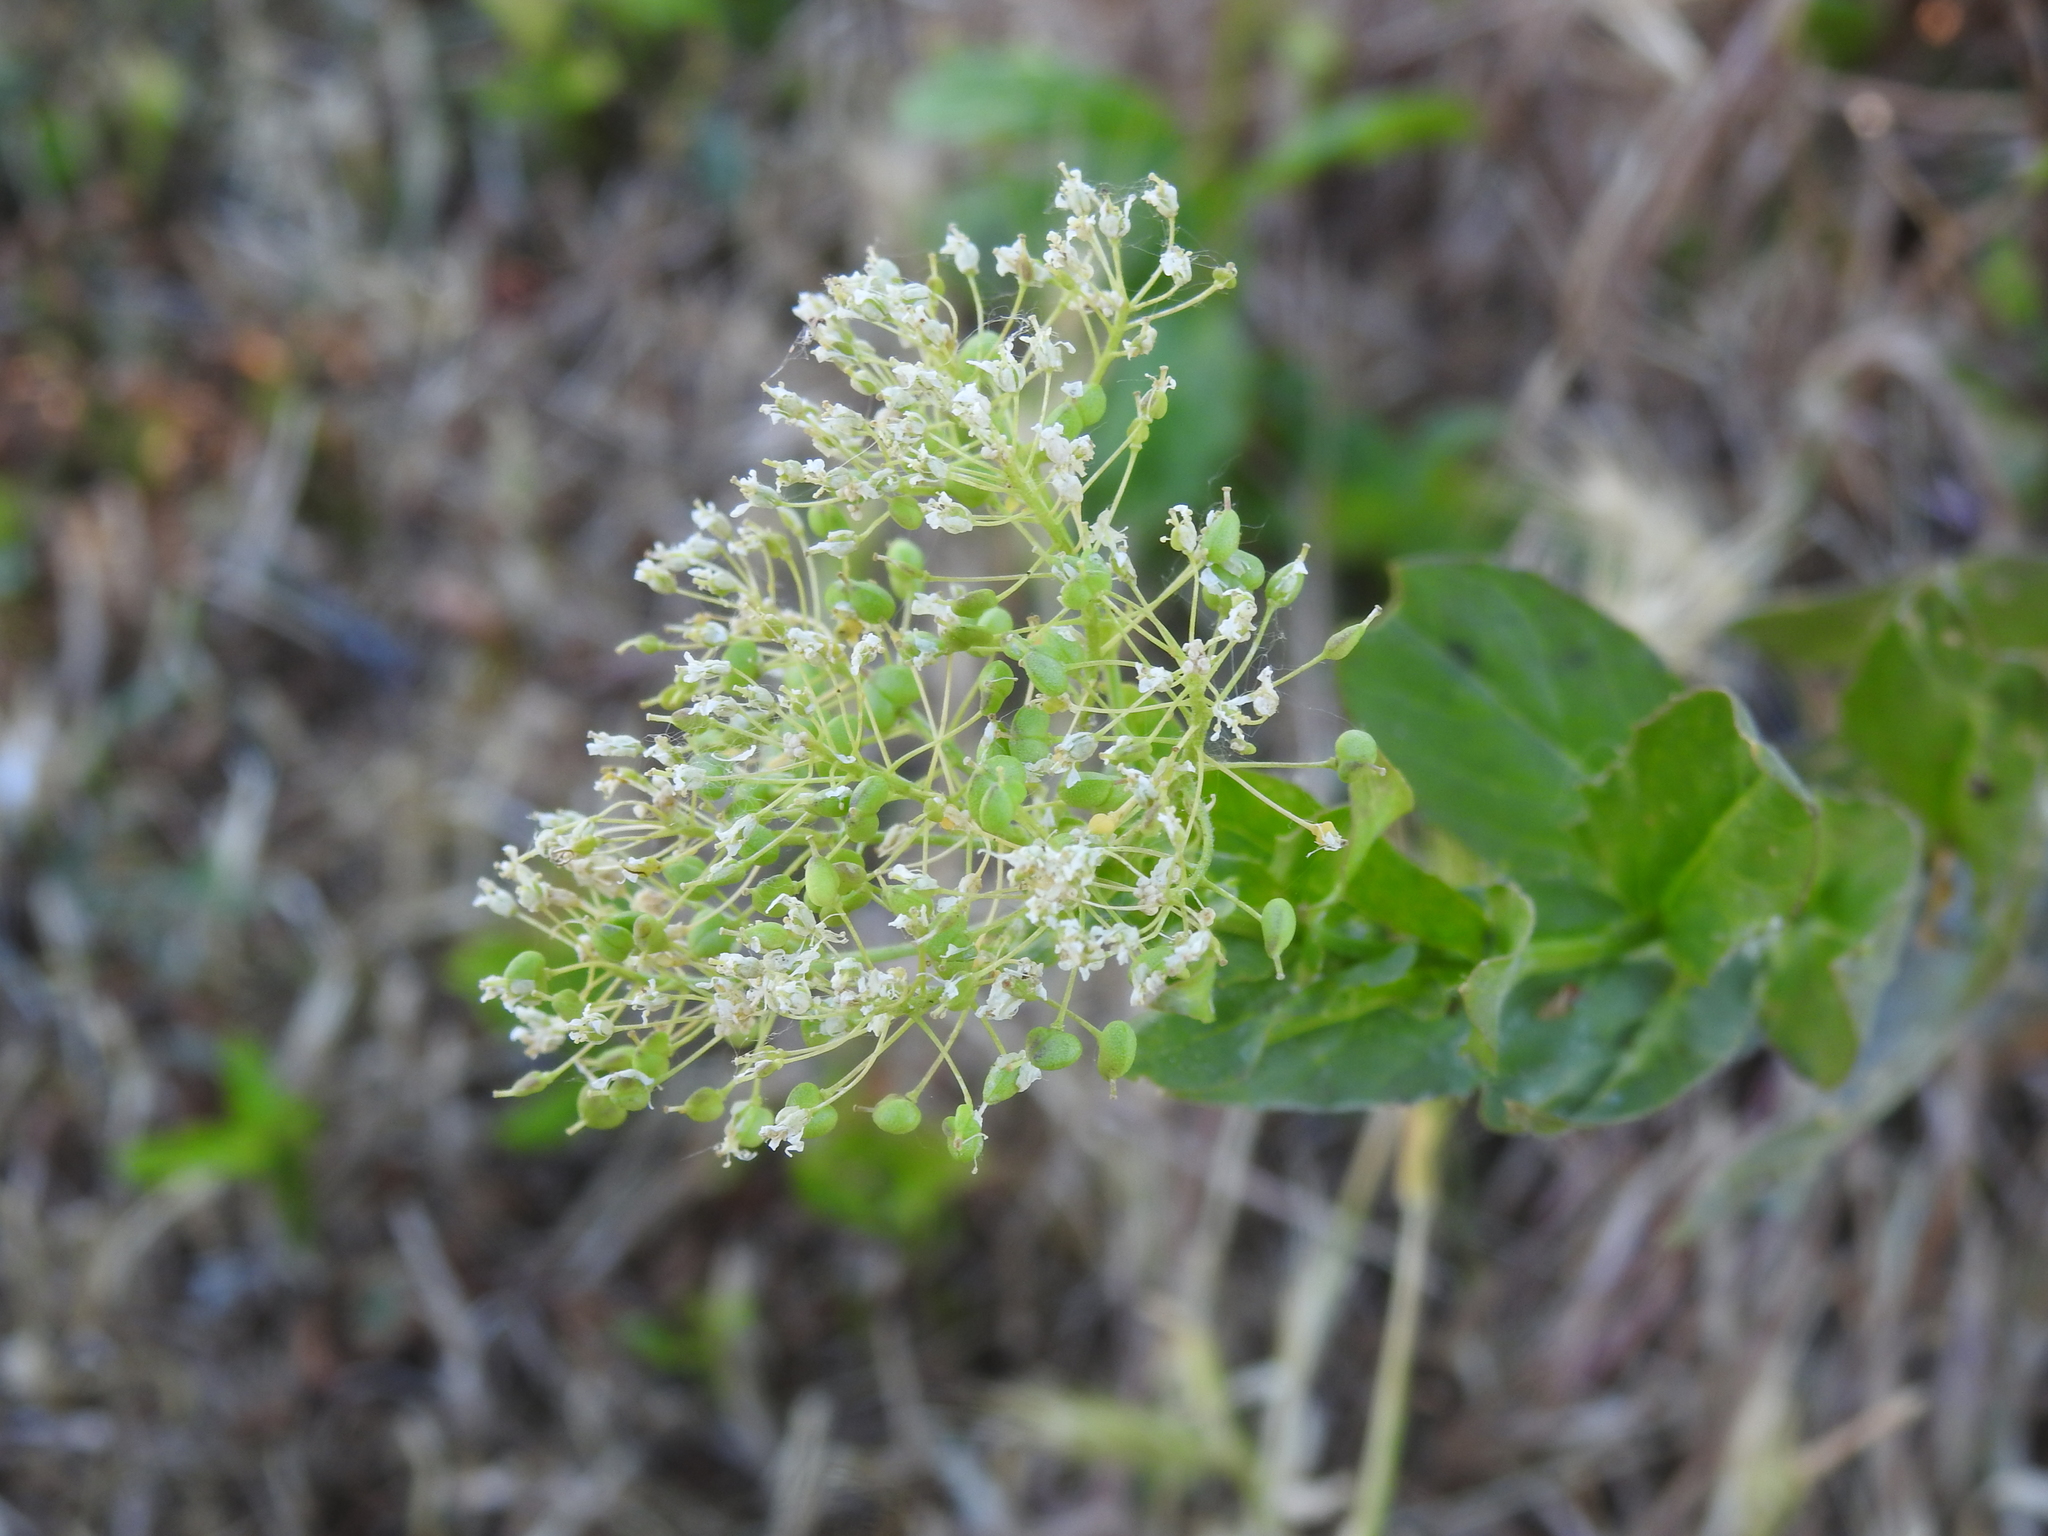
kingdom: Plantae
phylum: Tracheophyta
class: Magnoliopsida
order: Brassicales
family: Brassicaceae
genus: Lepidium
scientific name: Lepidium draba
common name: Hoary cress
